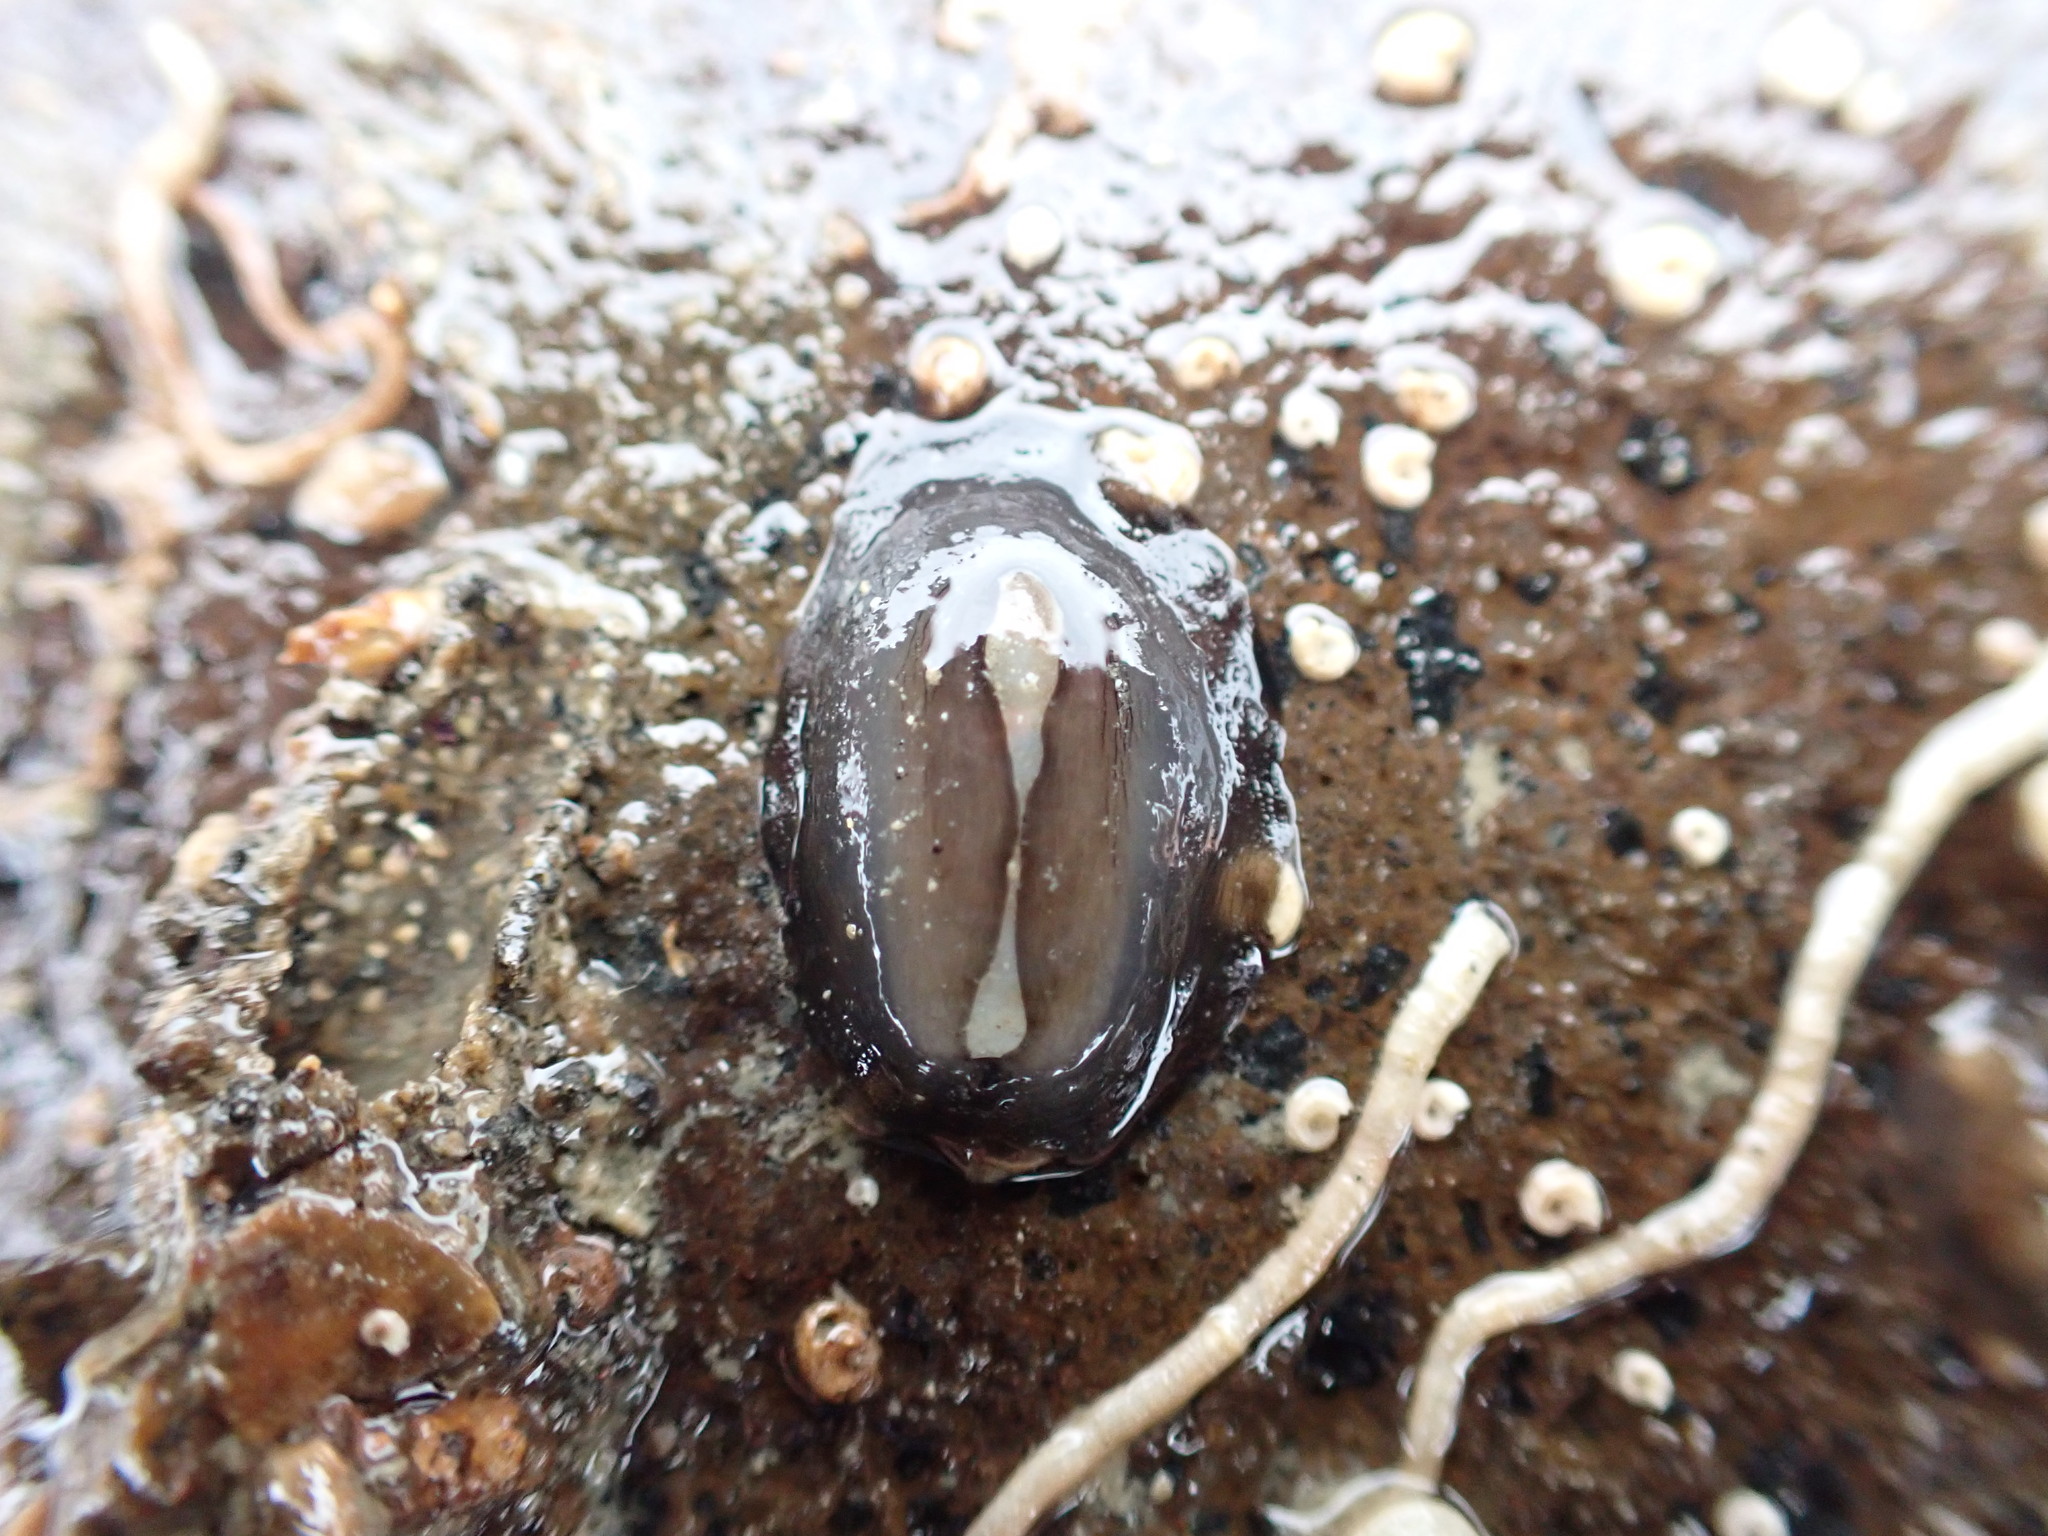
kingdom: Animalia
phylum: Mollusca
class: Gastropoda
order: Lepetellida
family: Fissurellidae
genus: Scutus
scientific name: Scutus breviculus
